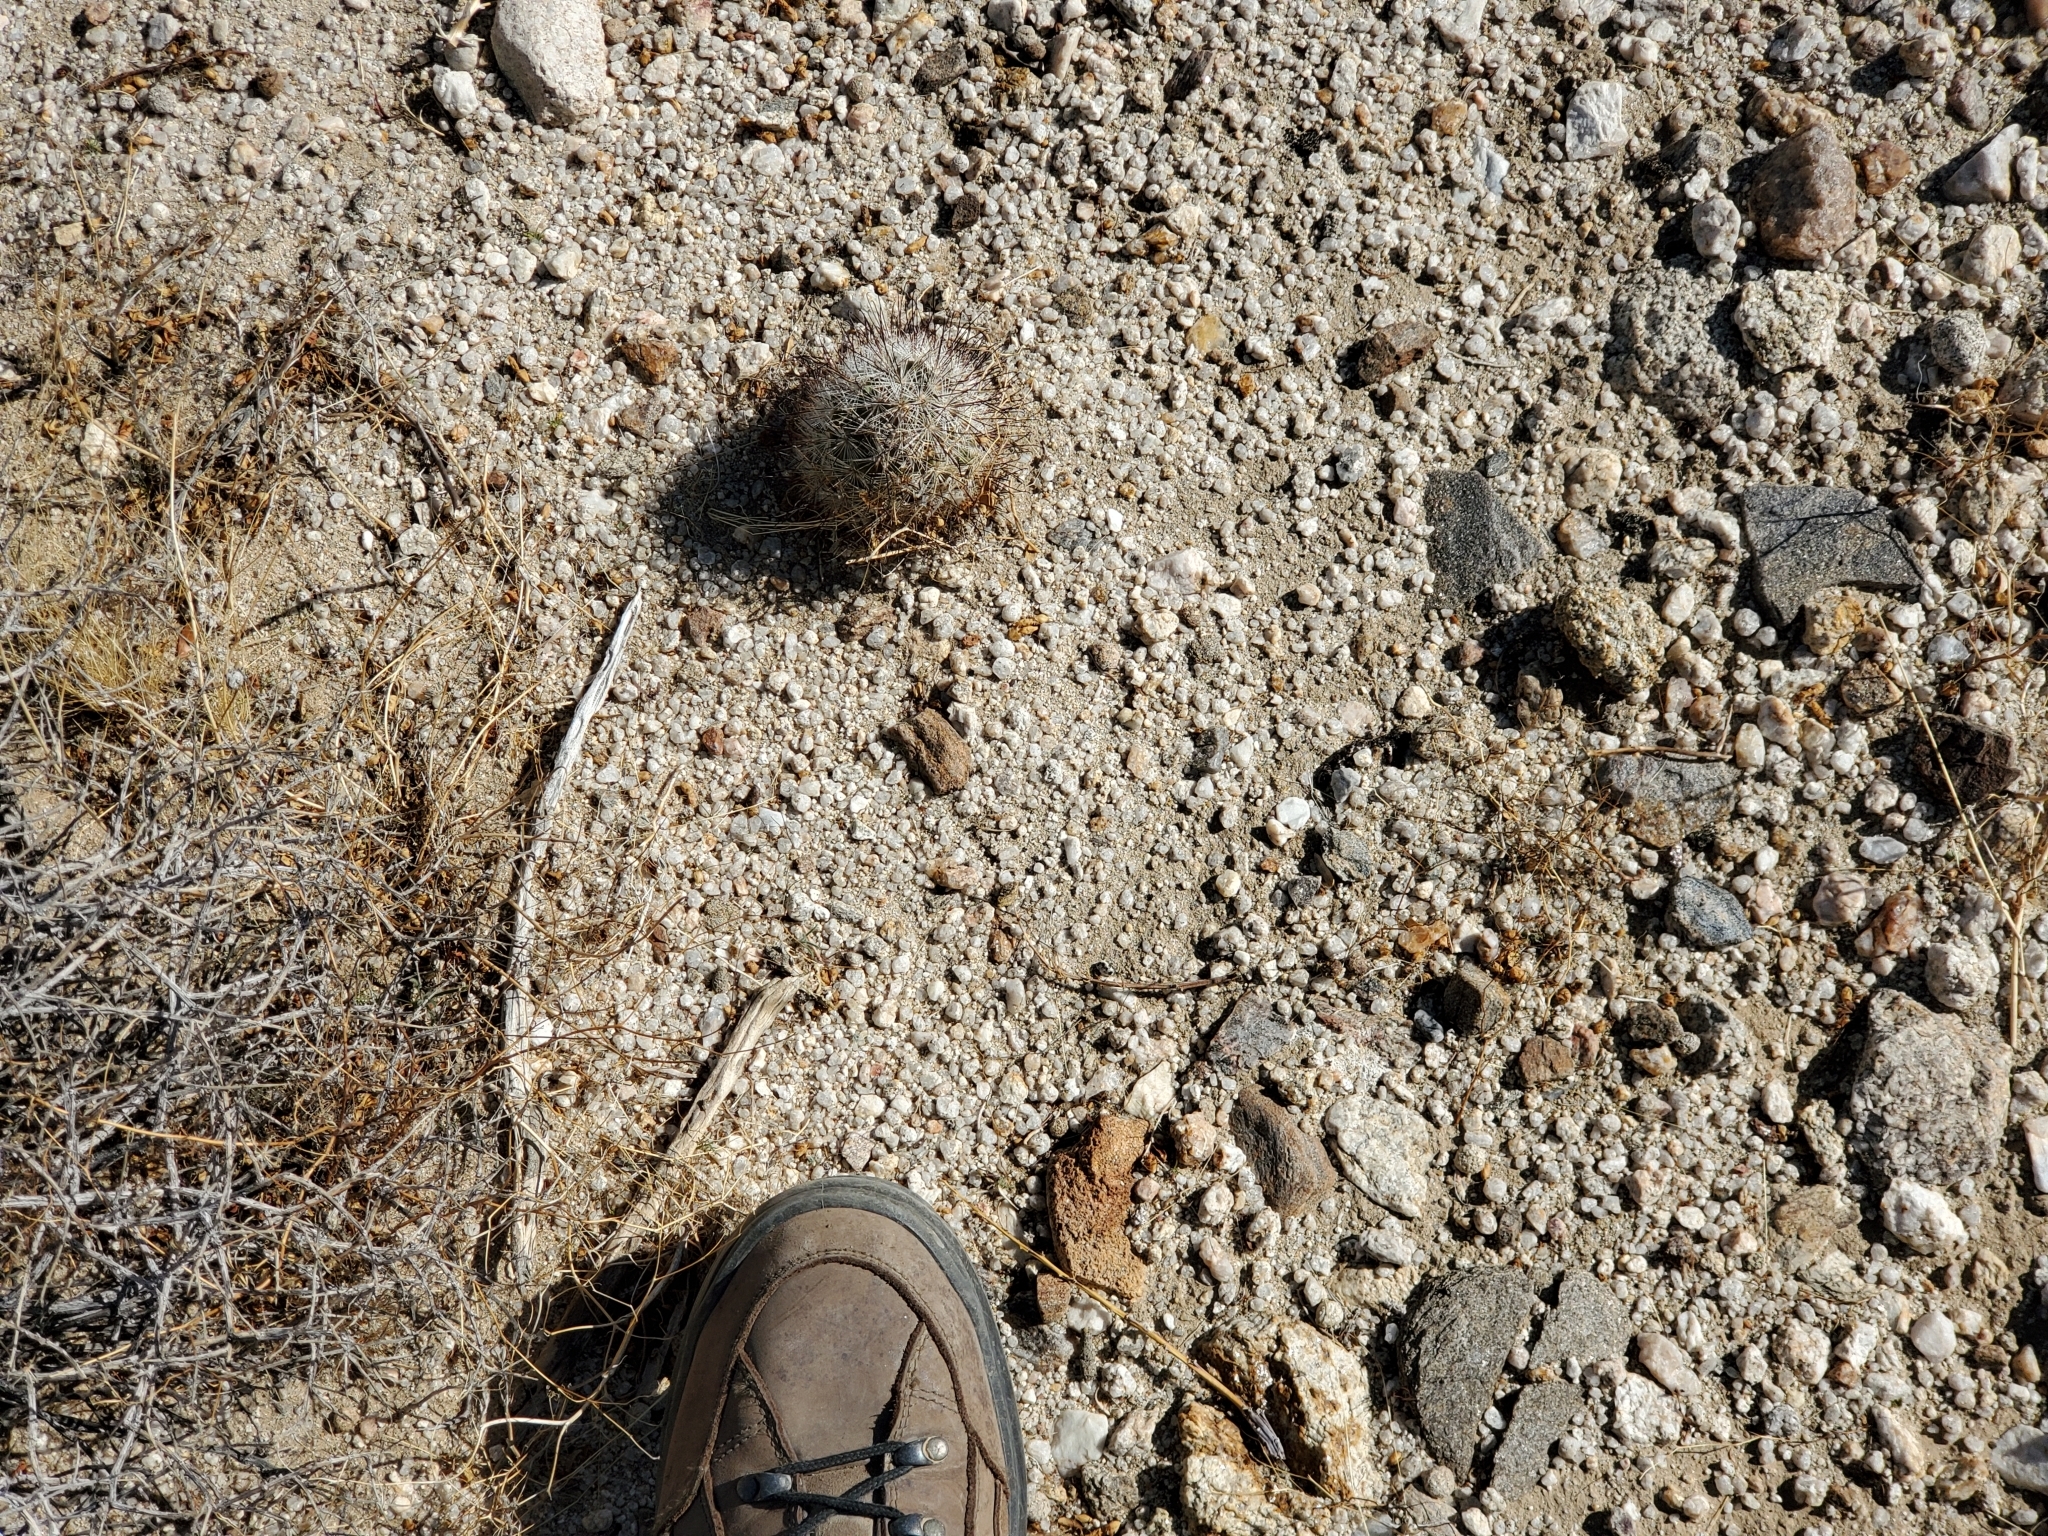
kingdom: Plantae
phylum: Tracheophyta
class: Magnoliopsida
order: Caryophyllales
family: Cactaceae
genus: Cochemiea
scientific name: Cochemiea tetrancistra
